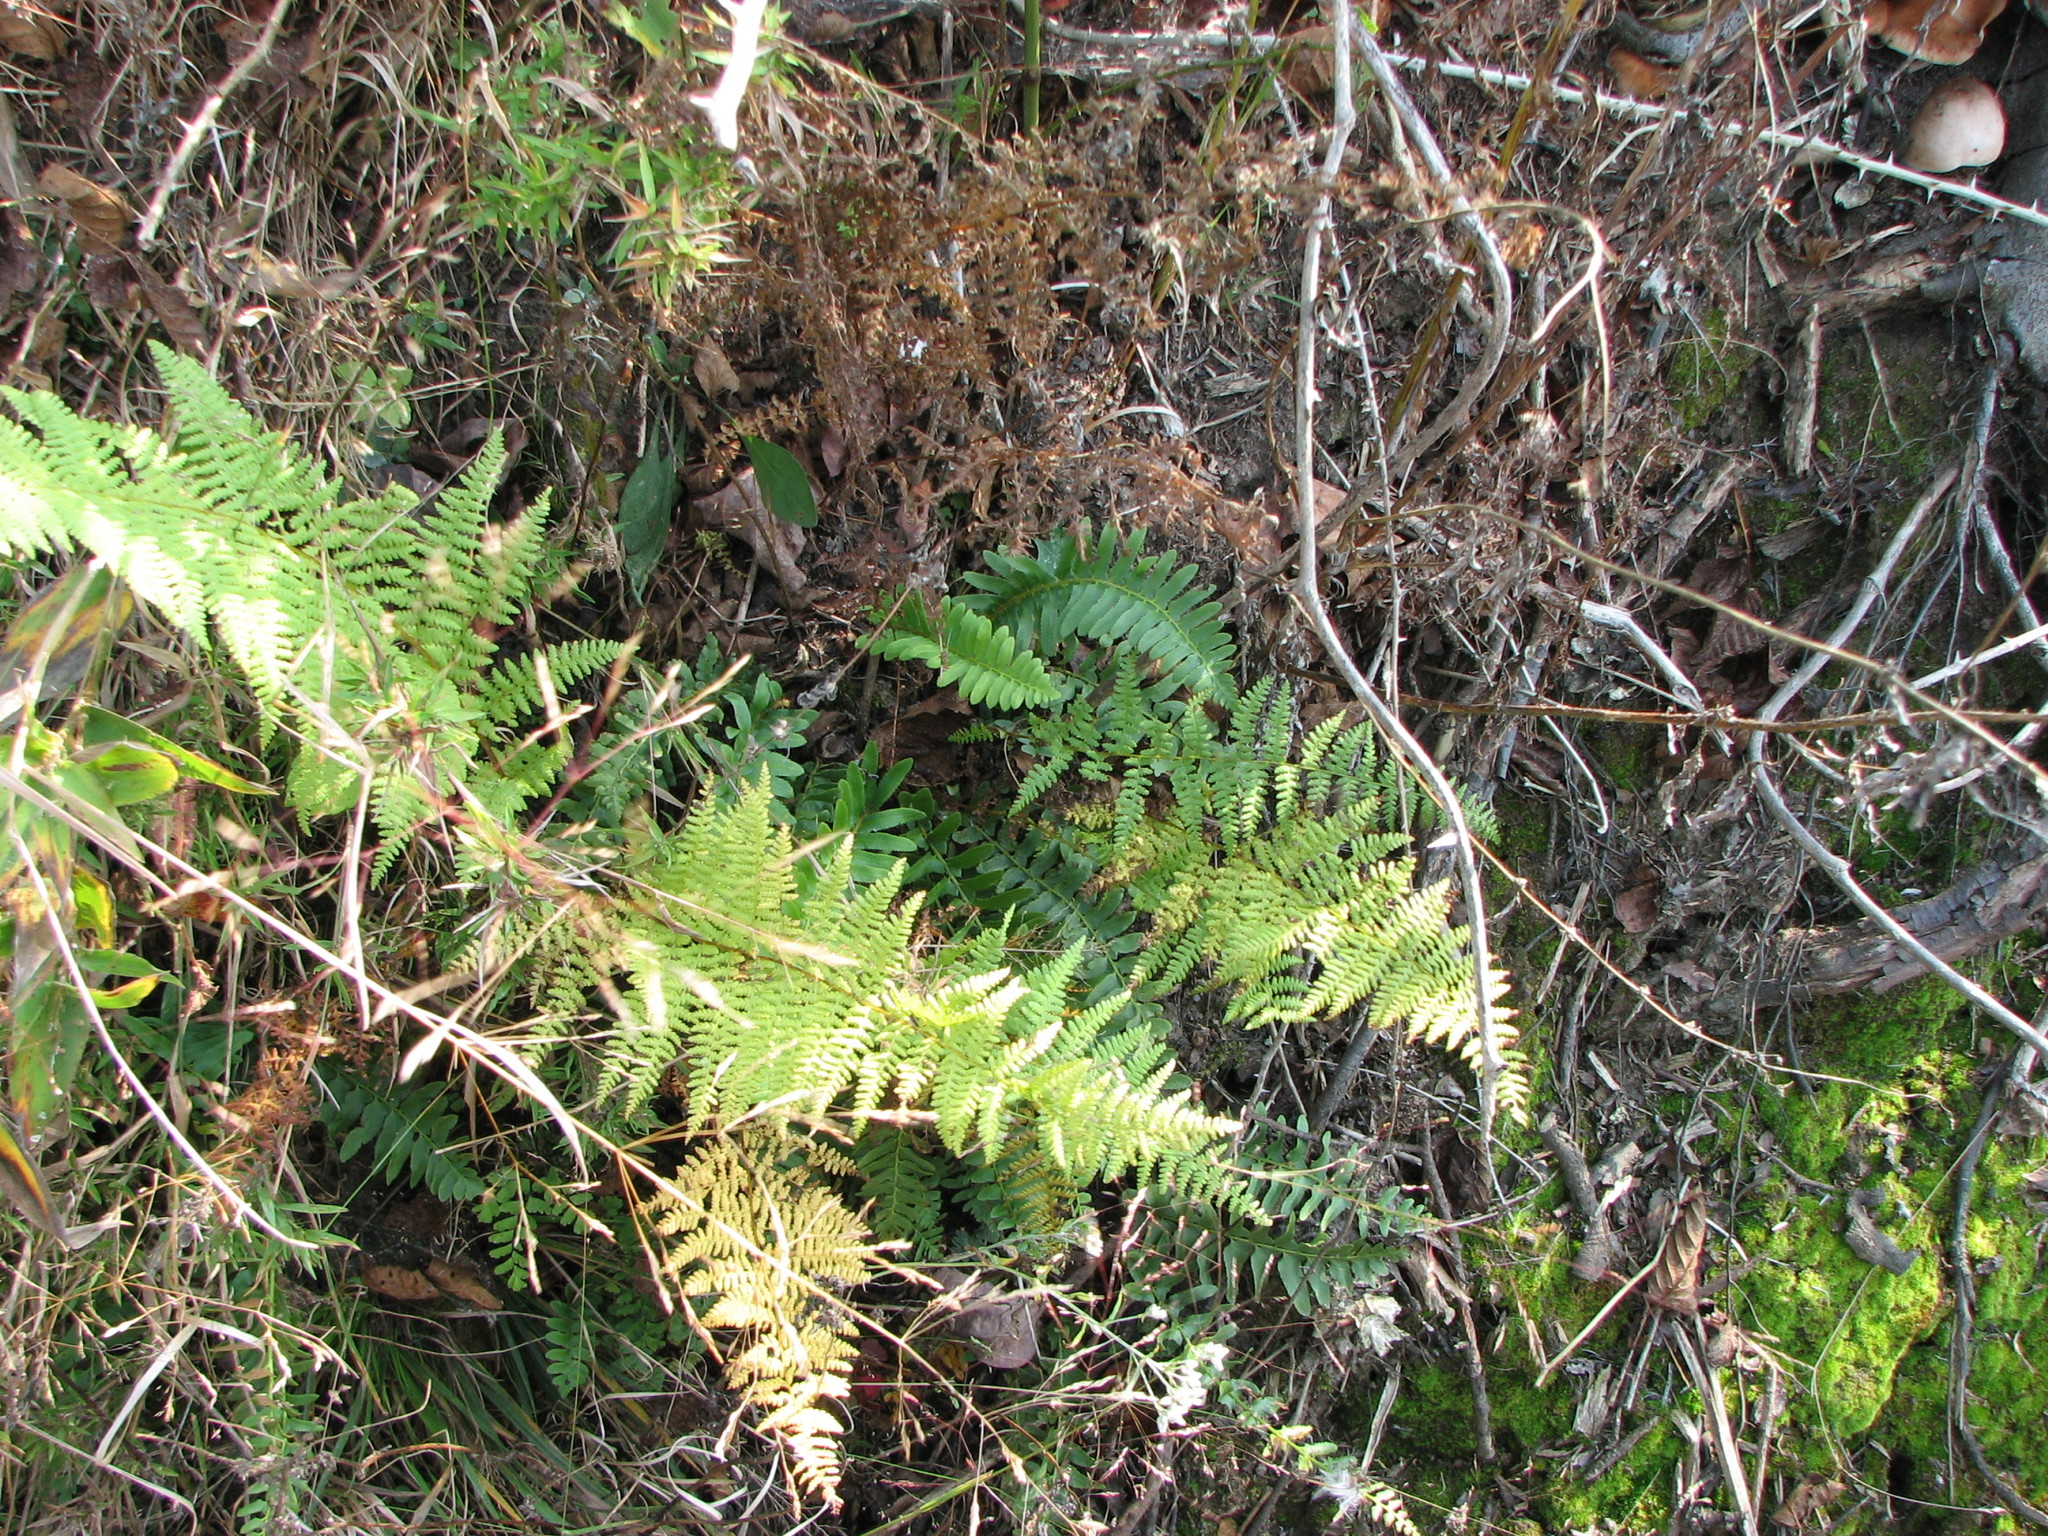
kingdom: Plantae
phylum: Tracheophyta
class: Polypodiopsida
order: Polypodiales
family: Dryopteridaceae
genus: Polystichum
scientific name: Polystichum acrostichoides
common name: Christmas fern
